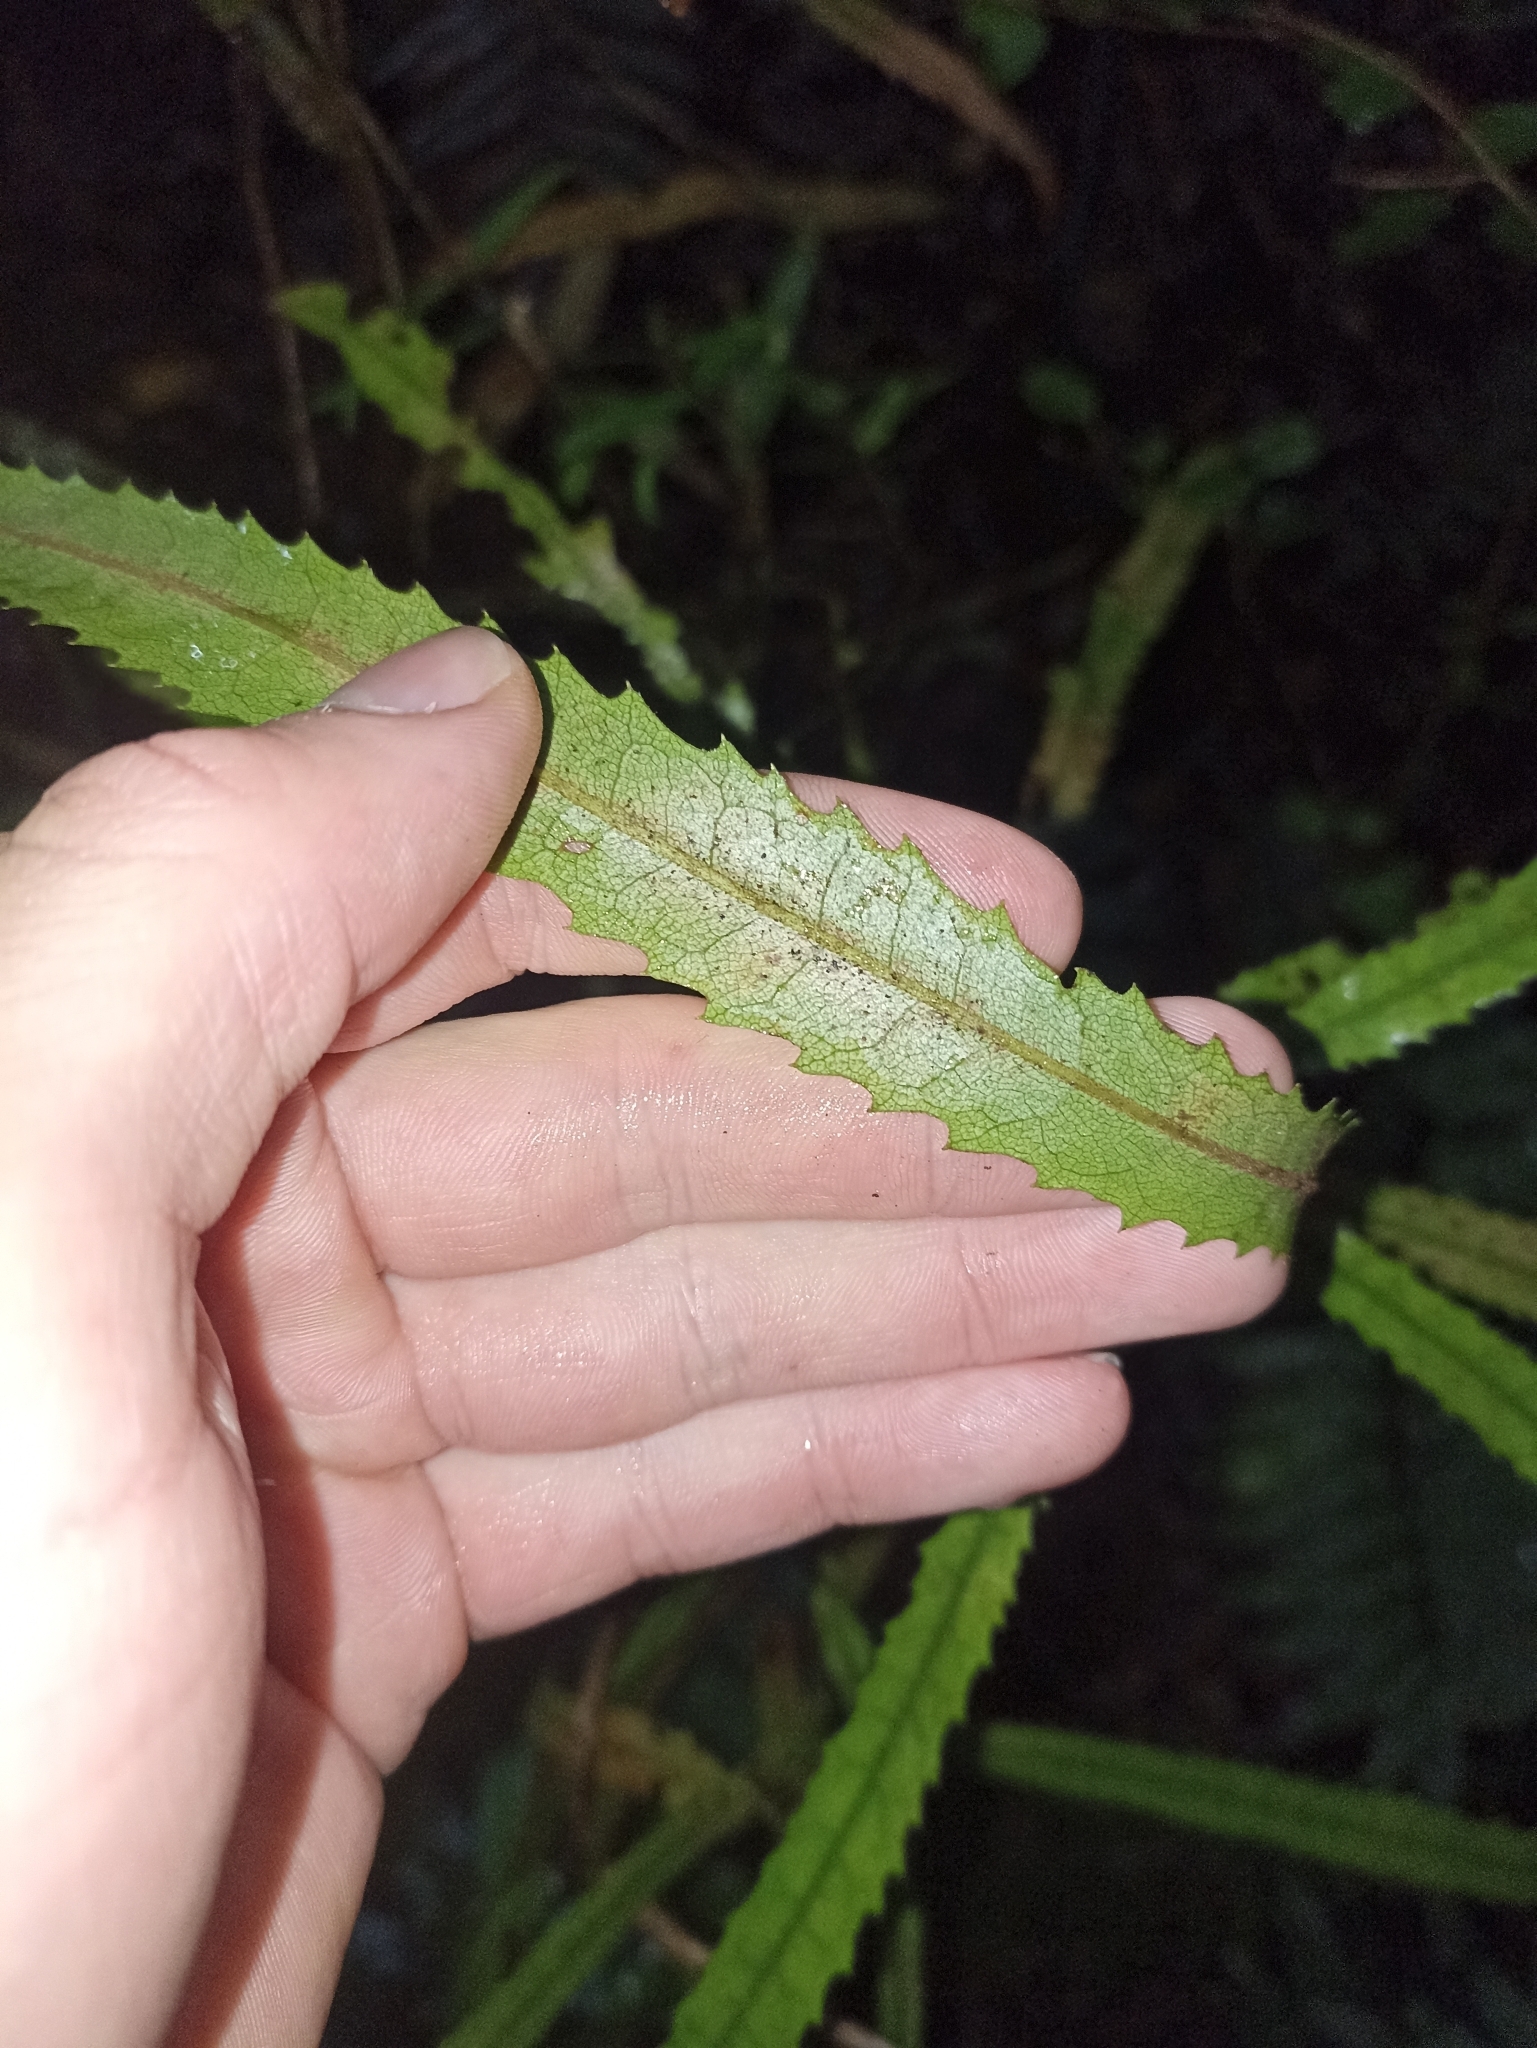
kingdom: Plantae
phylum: Tracheophyta
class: Magnoliopsida
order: Proteales
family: Proteaceae
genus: Knightia
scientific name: Knightia excelsa
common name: New zealand-honeysuckle
